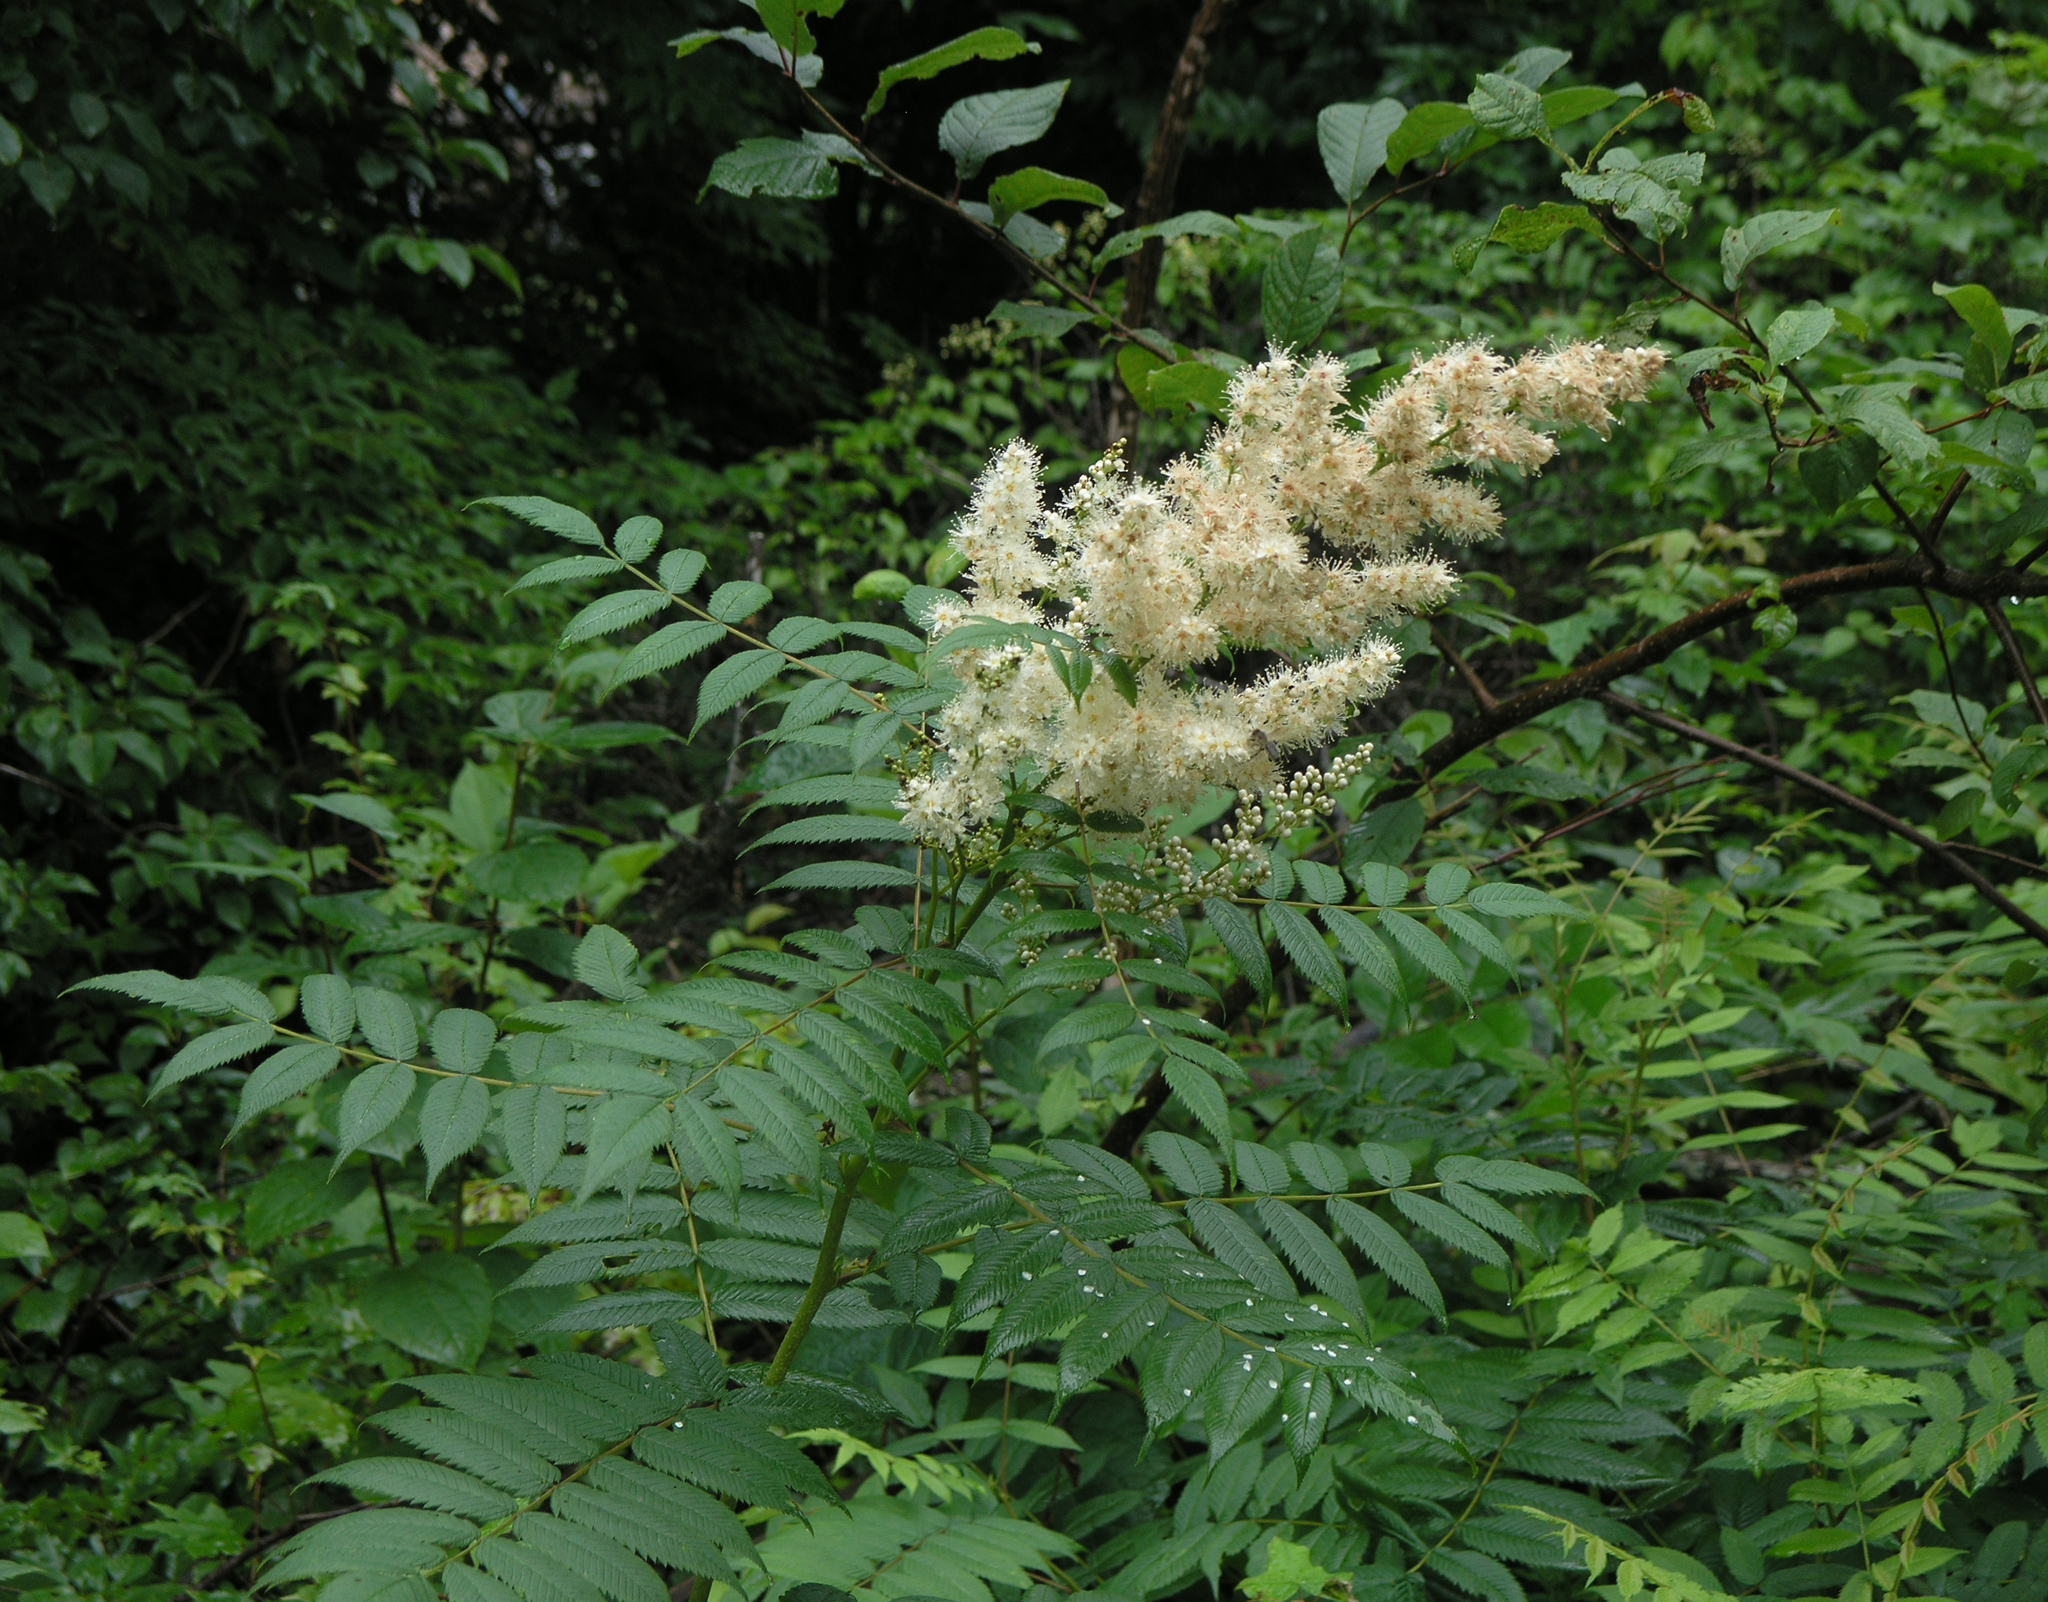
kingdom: Plantae
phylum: Tracheophyta
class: Magnoliopsida
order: Rosales
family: Rosaceae
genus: Sorbaria
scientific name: Sorbaria sorbifolia
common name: False spiraea
